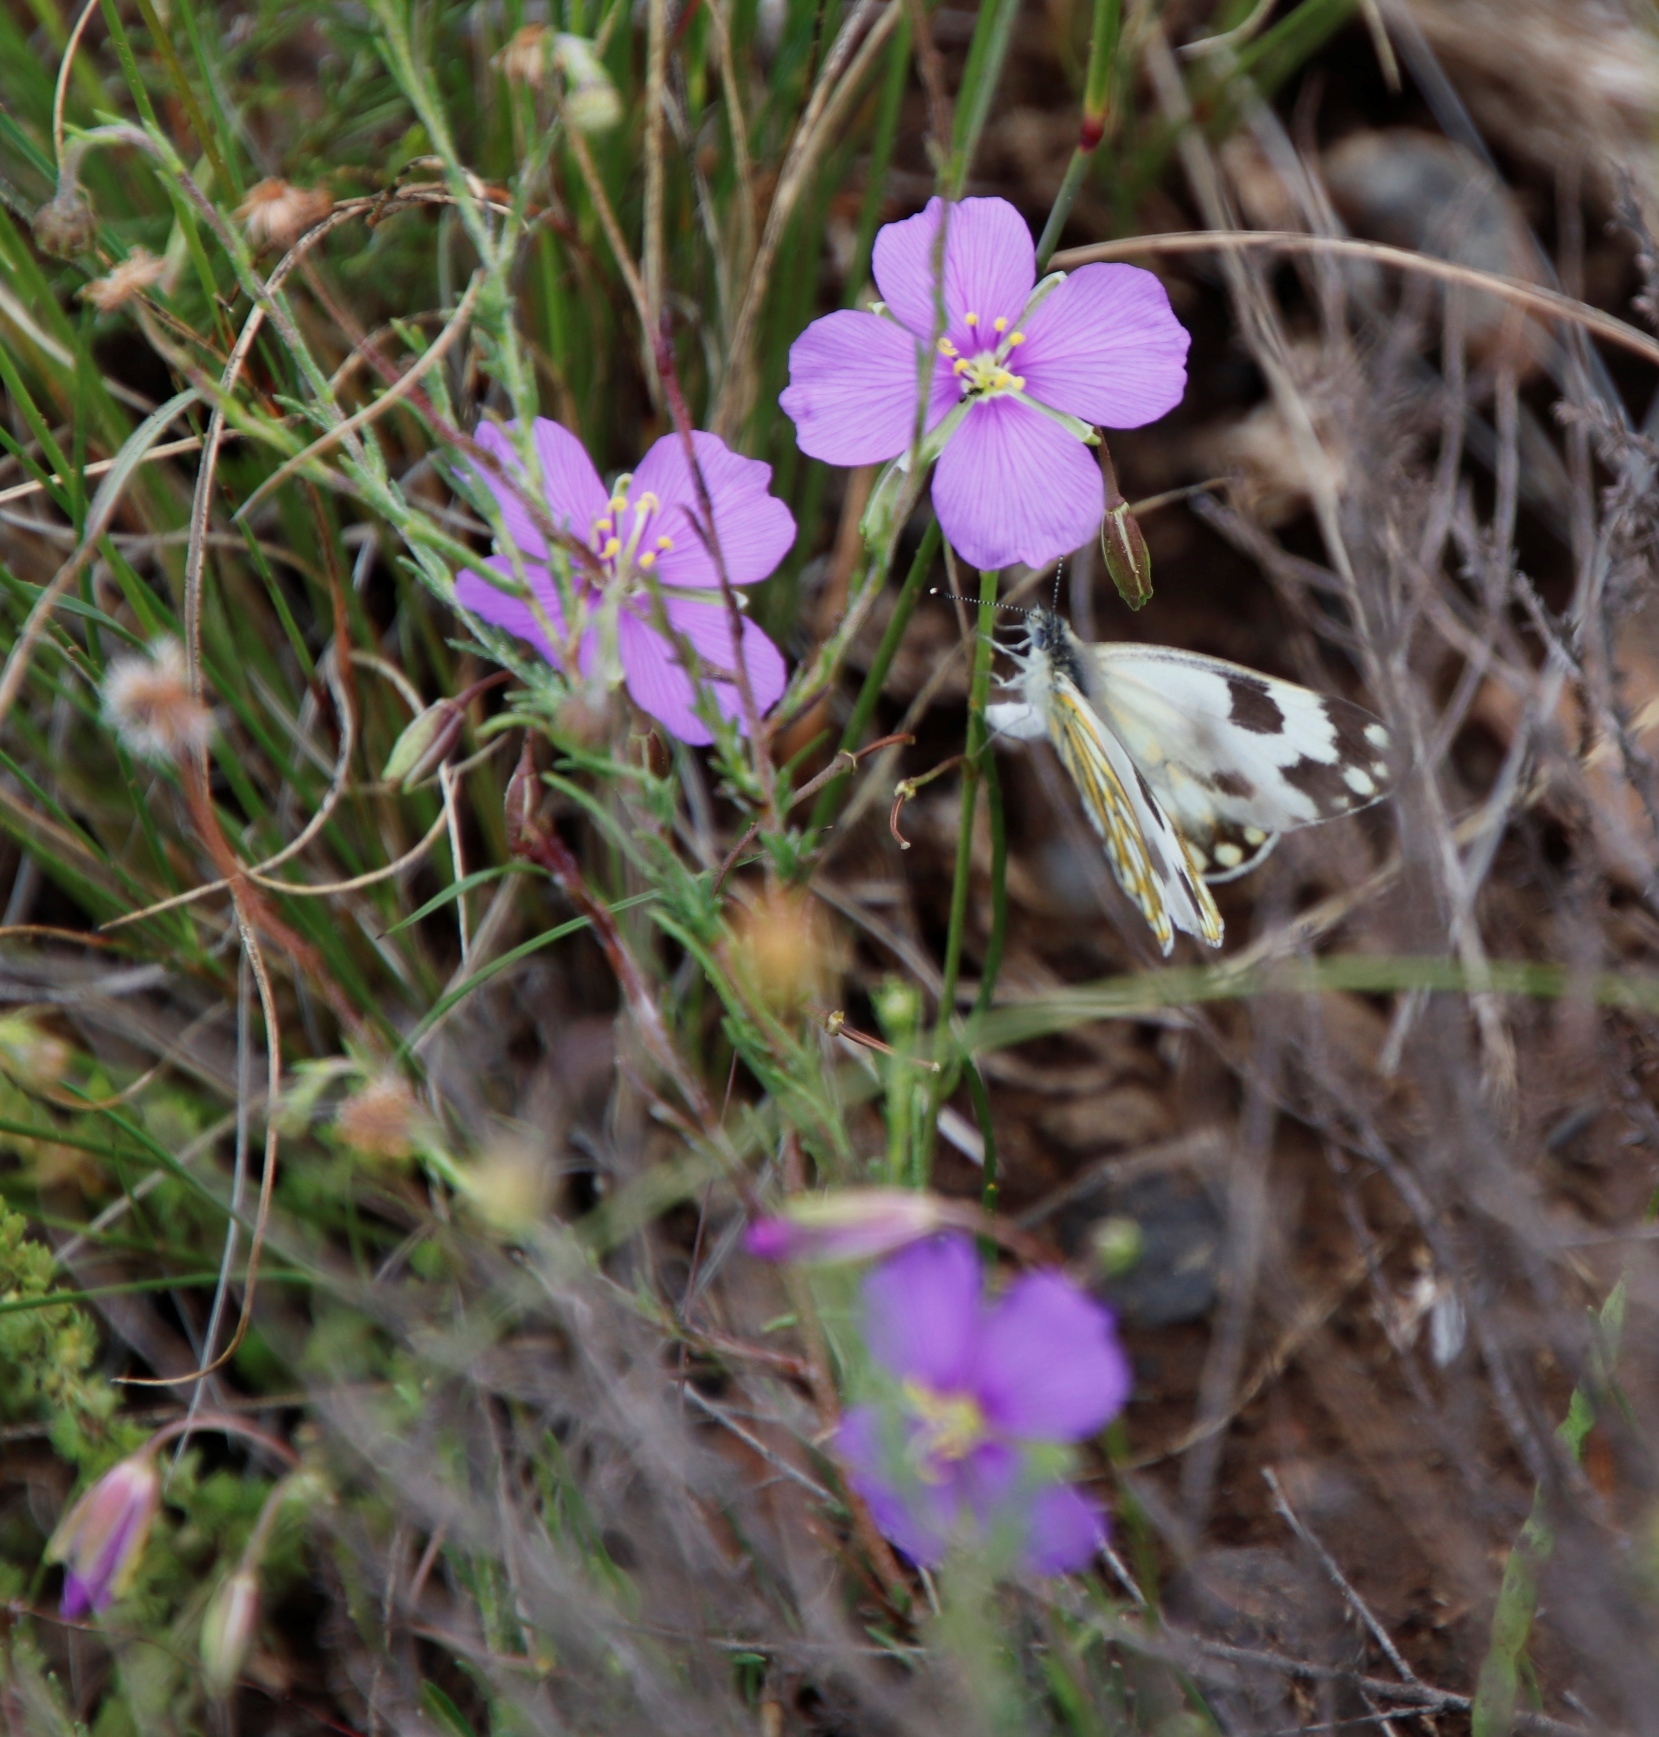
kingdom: Plantae
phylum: Tracheophyta
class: Magnoliopsida
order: Brassicales
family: Brassicaceae
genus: Heliophila
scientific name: Heliophila suavissima
